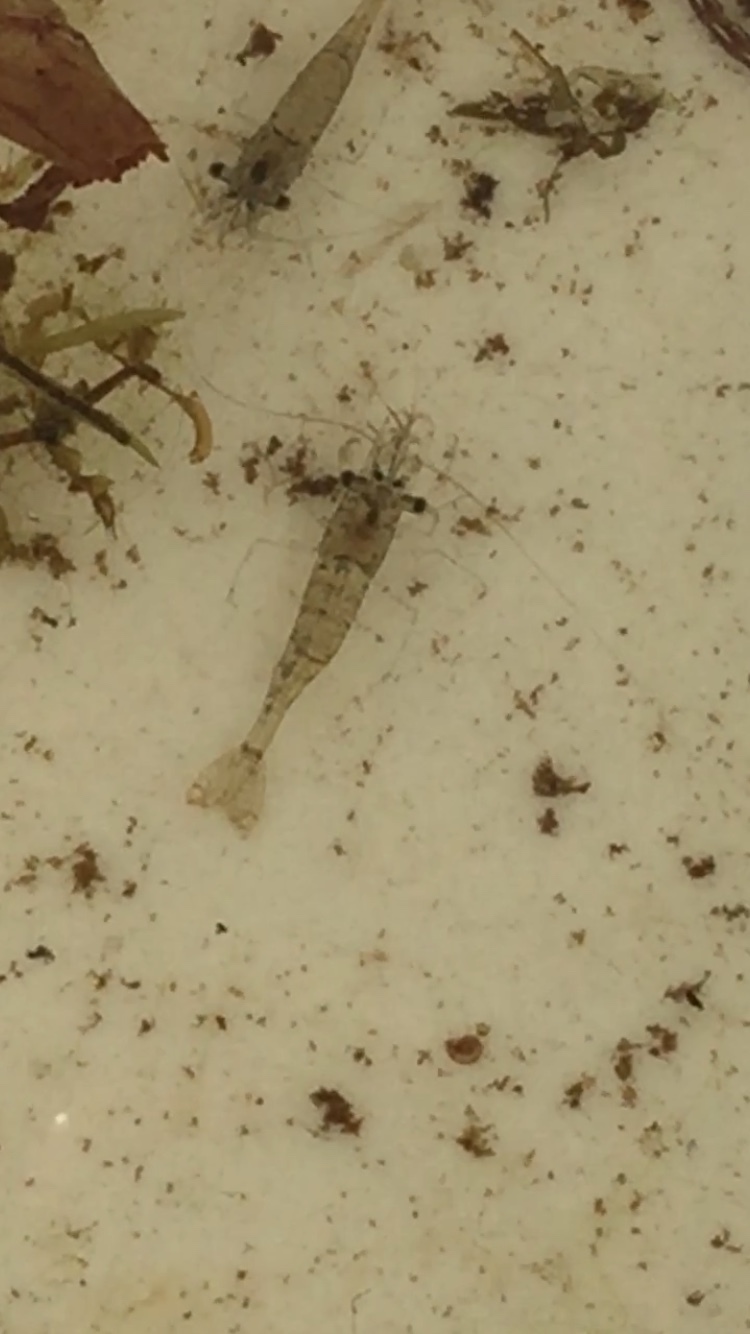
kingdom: Animalia
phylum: Arthropoda
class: Malacostraca
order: Decapoda
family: Palaemonidae
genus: Palaemon
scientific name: Palaemon paludosus
